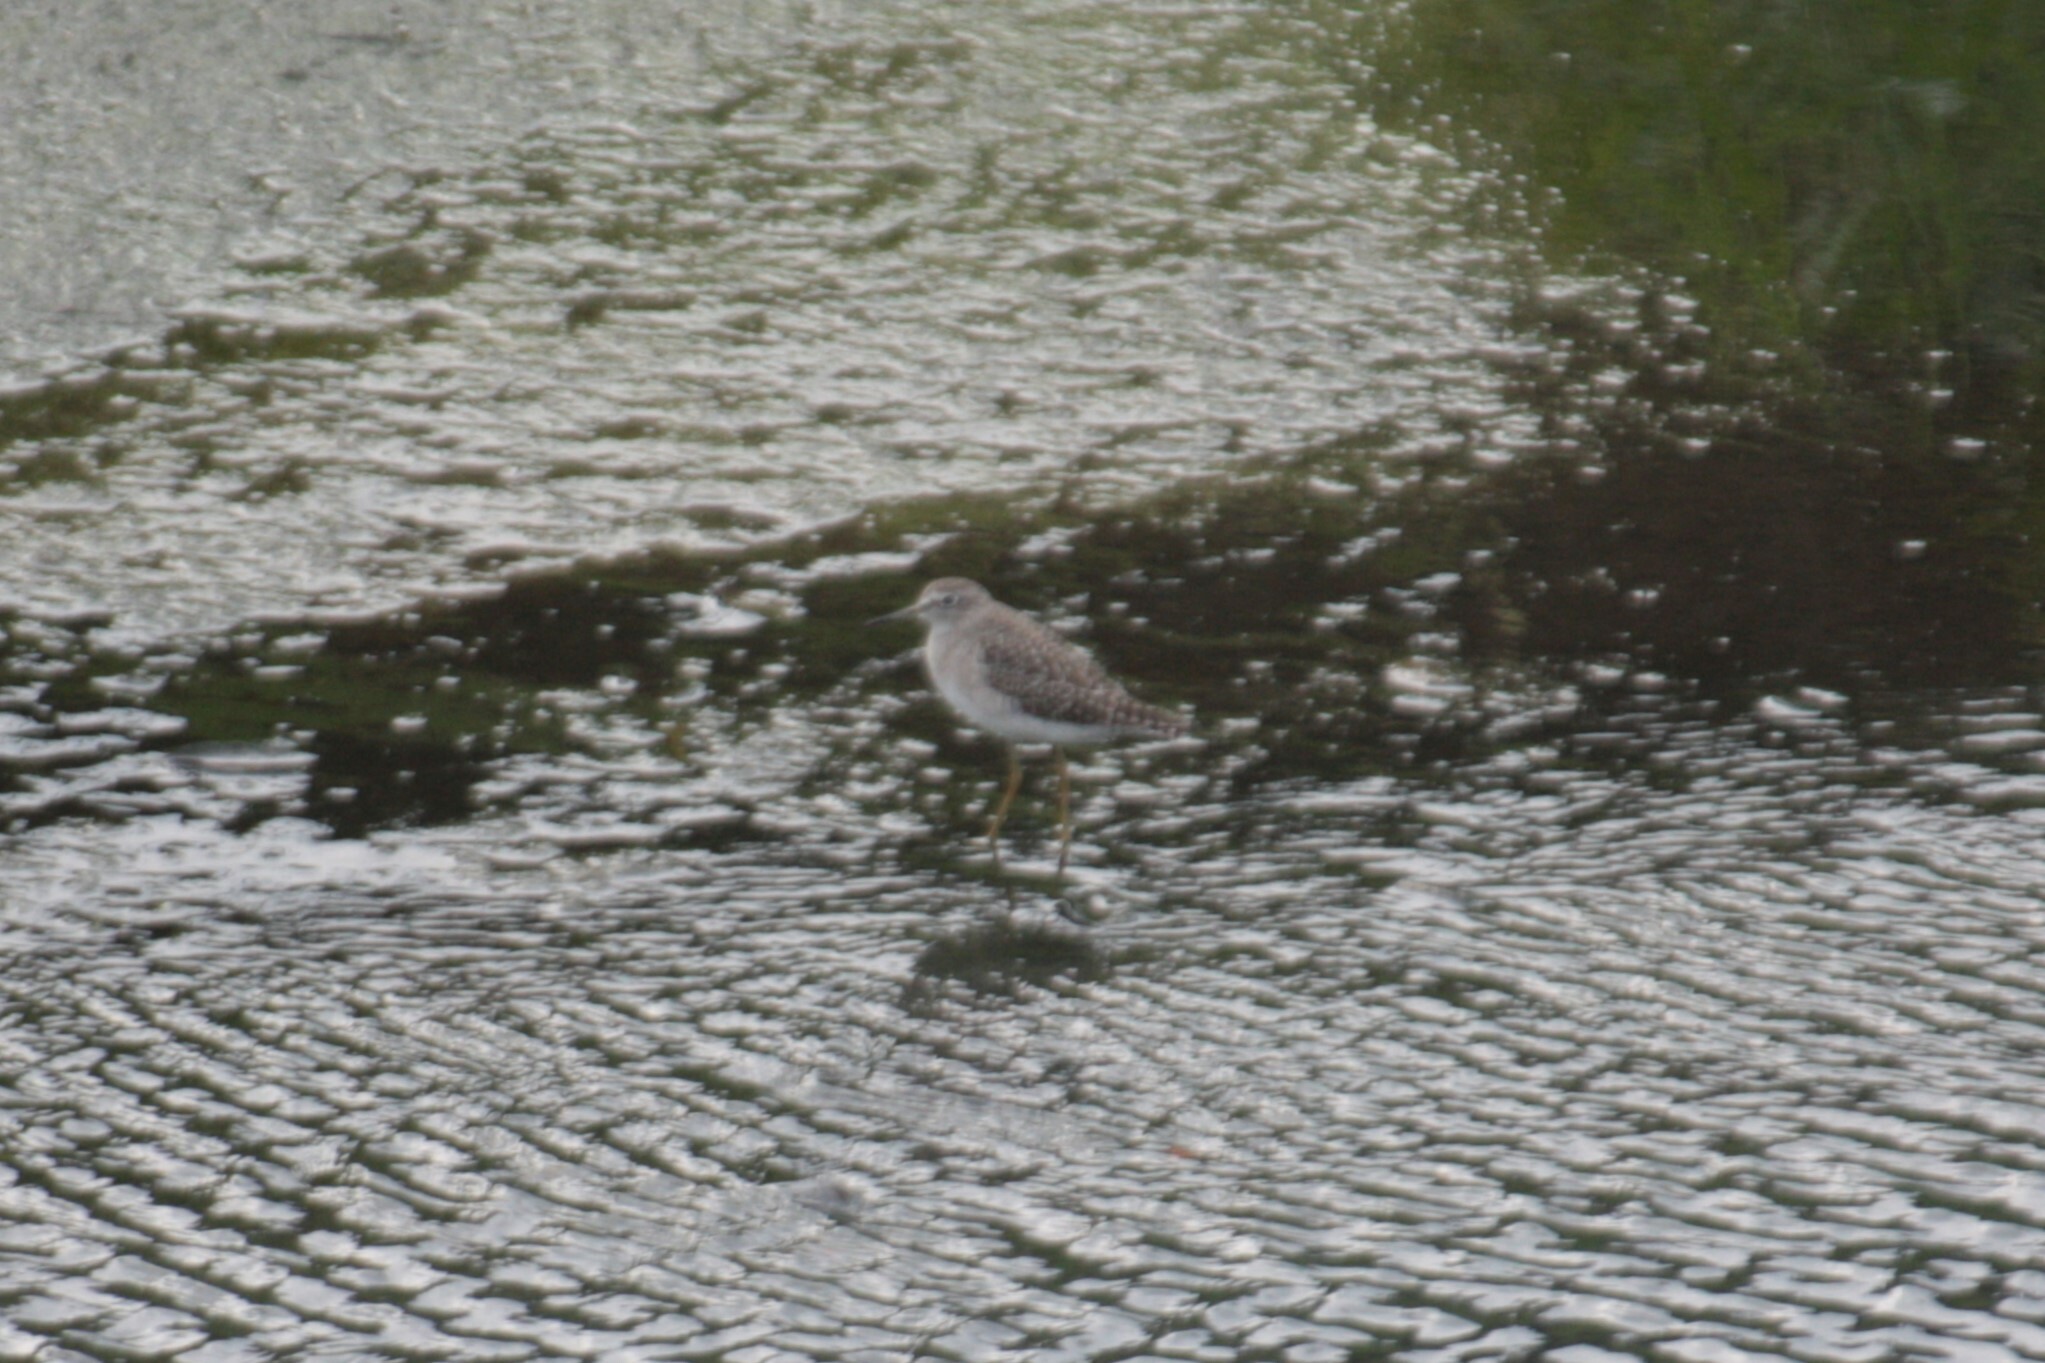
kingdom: Animalia
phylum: Chordata
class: Aves
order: Charadriiformes
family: Scolopacidae
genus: Tringa
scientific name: Tringa glareola
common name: Wood sandpiper
